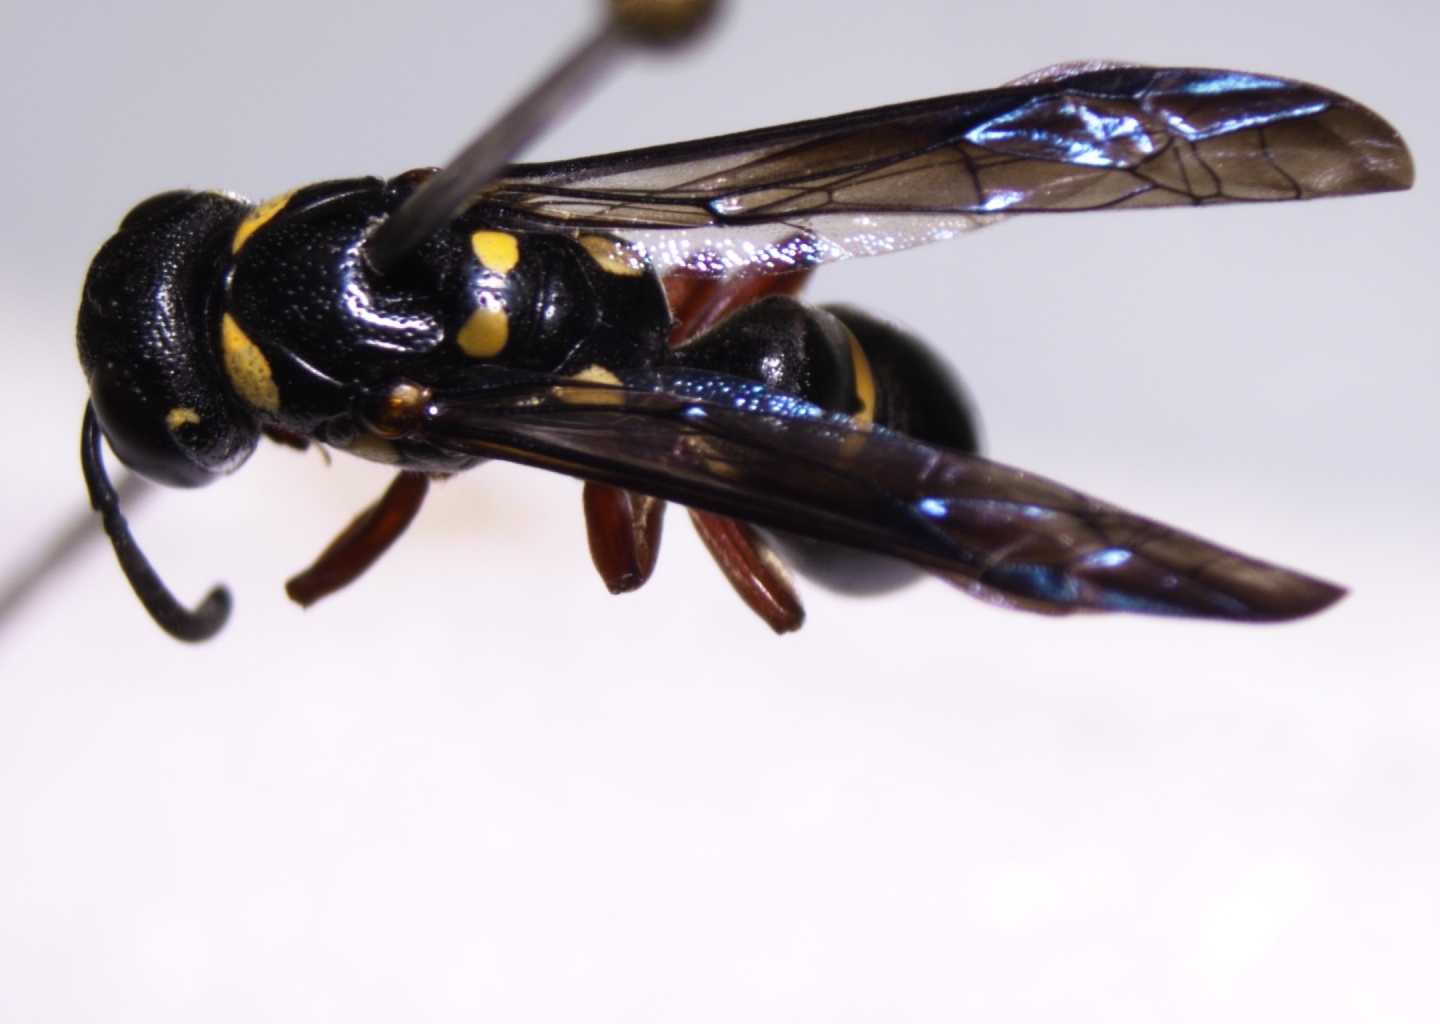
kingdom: Animalia
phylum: Arthropoda
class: Insecta
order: Hymenoptera
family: Eumenidae
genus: Parodynerus
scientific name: Parodynerus bicinctus
